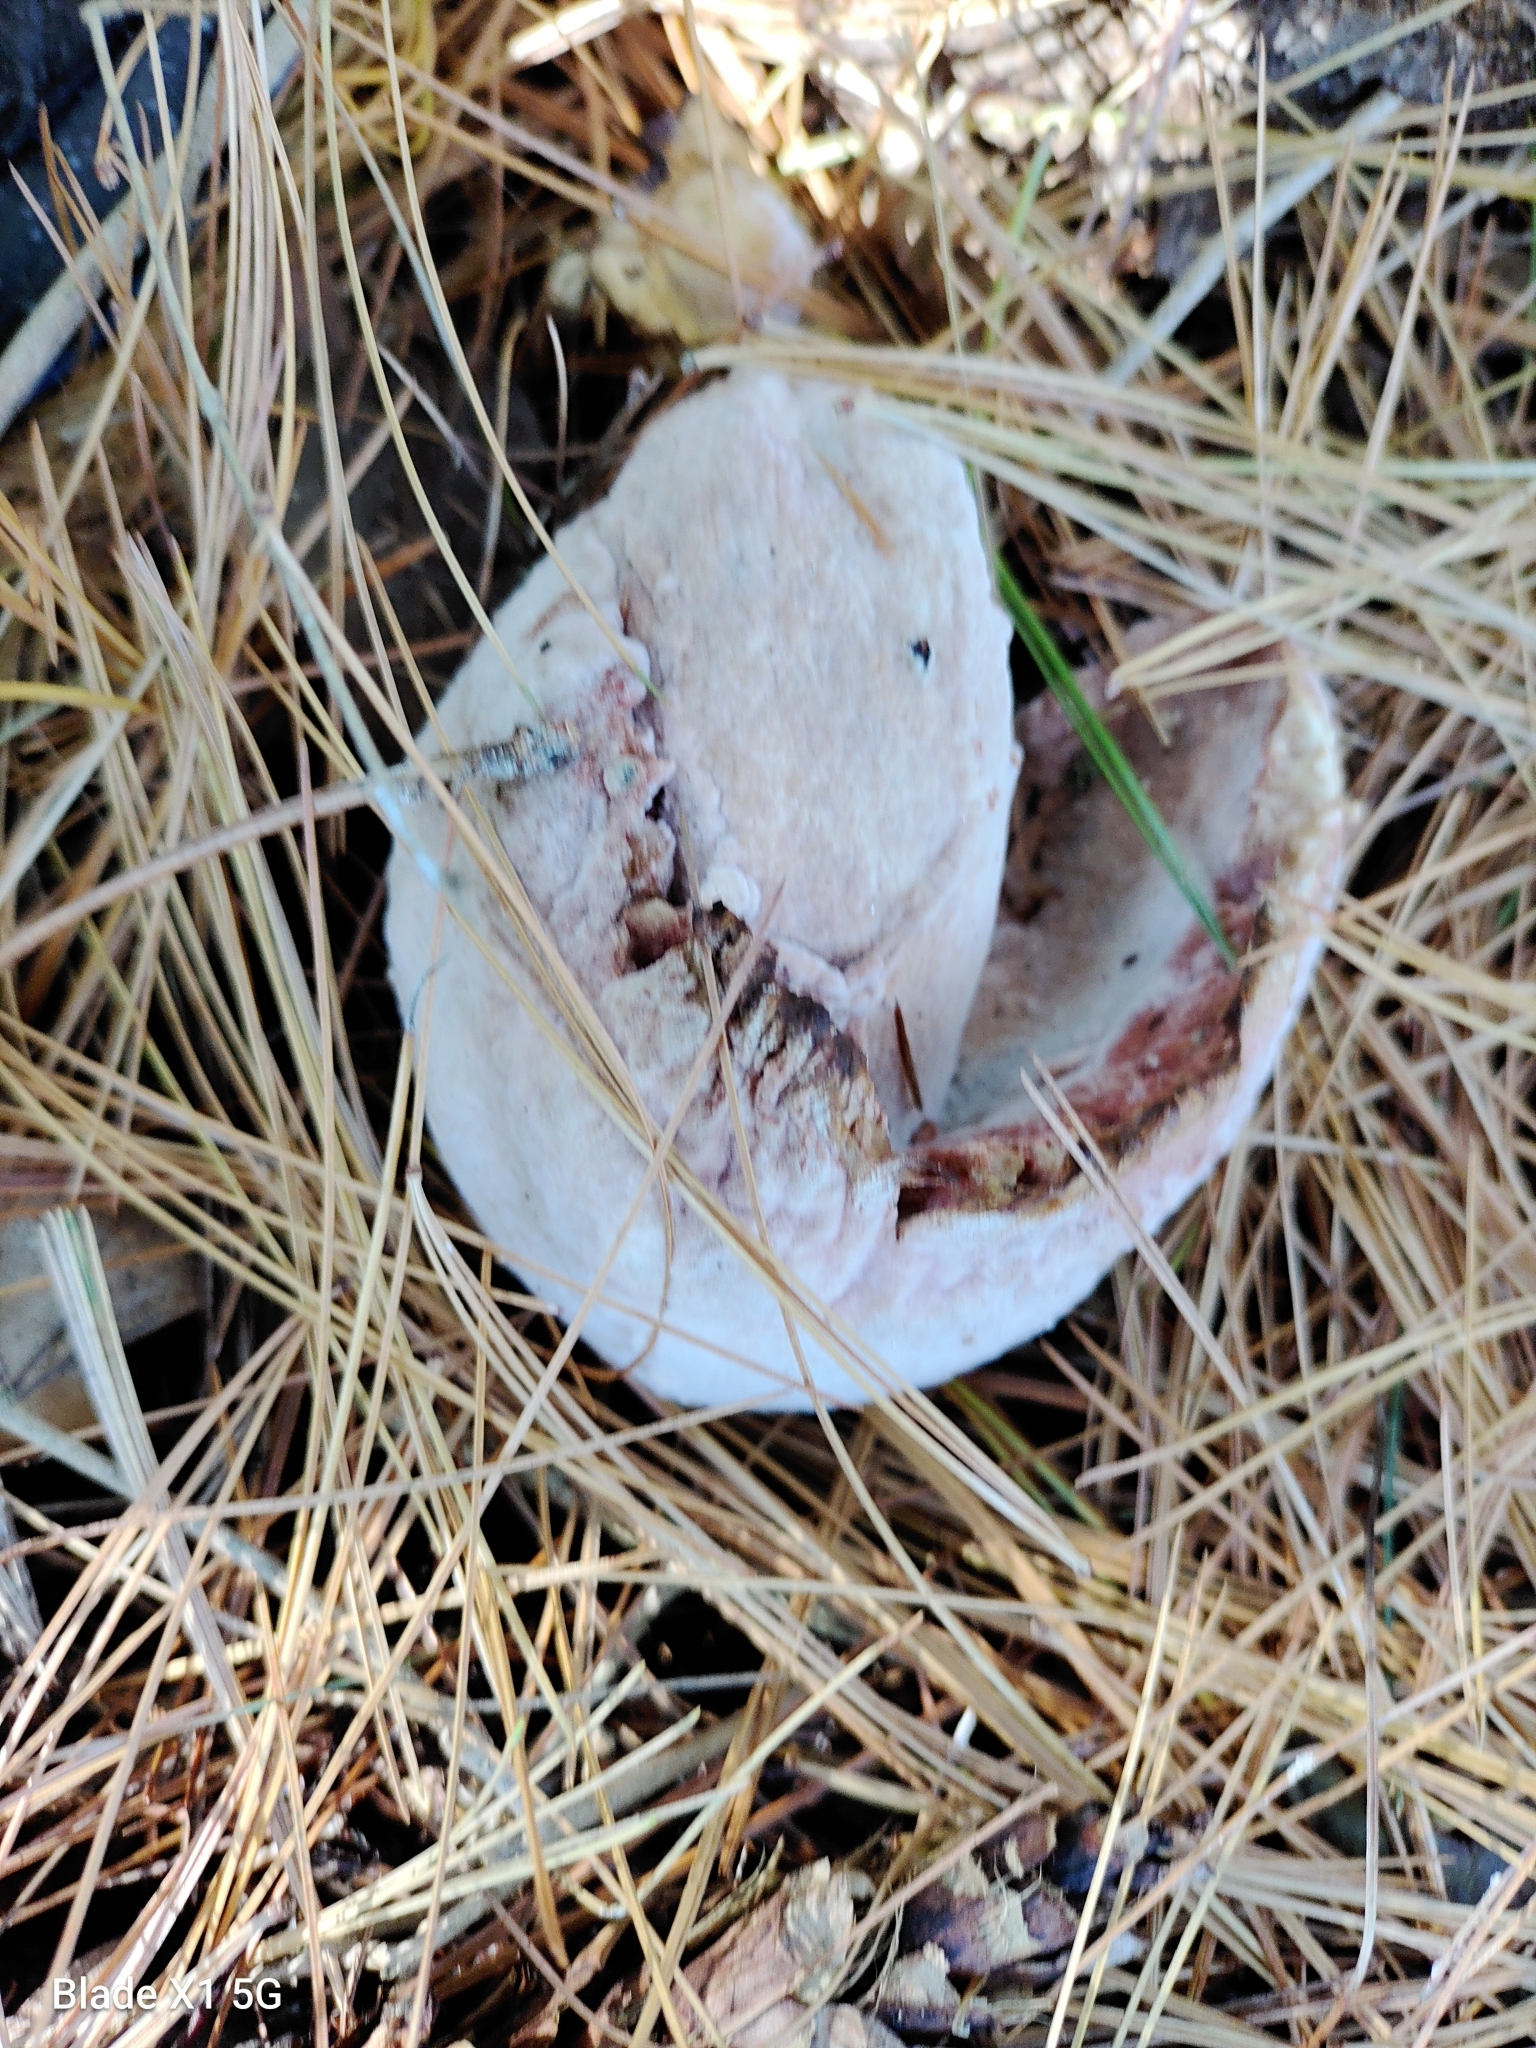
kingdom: Fungi
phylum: Ascomycota
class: Sordariomycetes
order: Hypocreales
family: Hypocreaceae
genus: Mycogone
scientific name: Mycogone rosea
